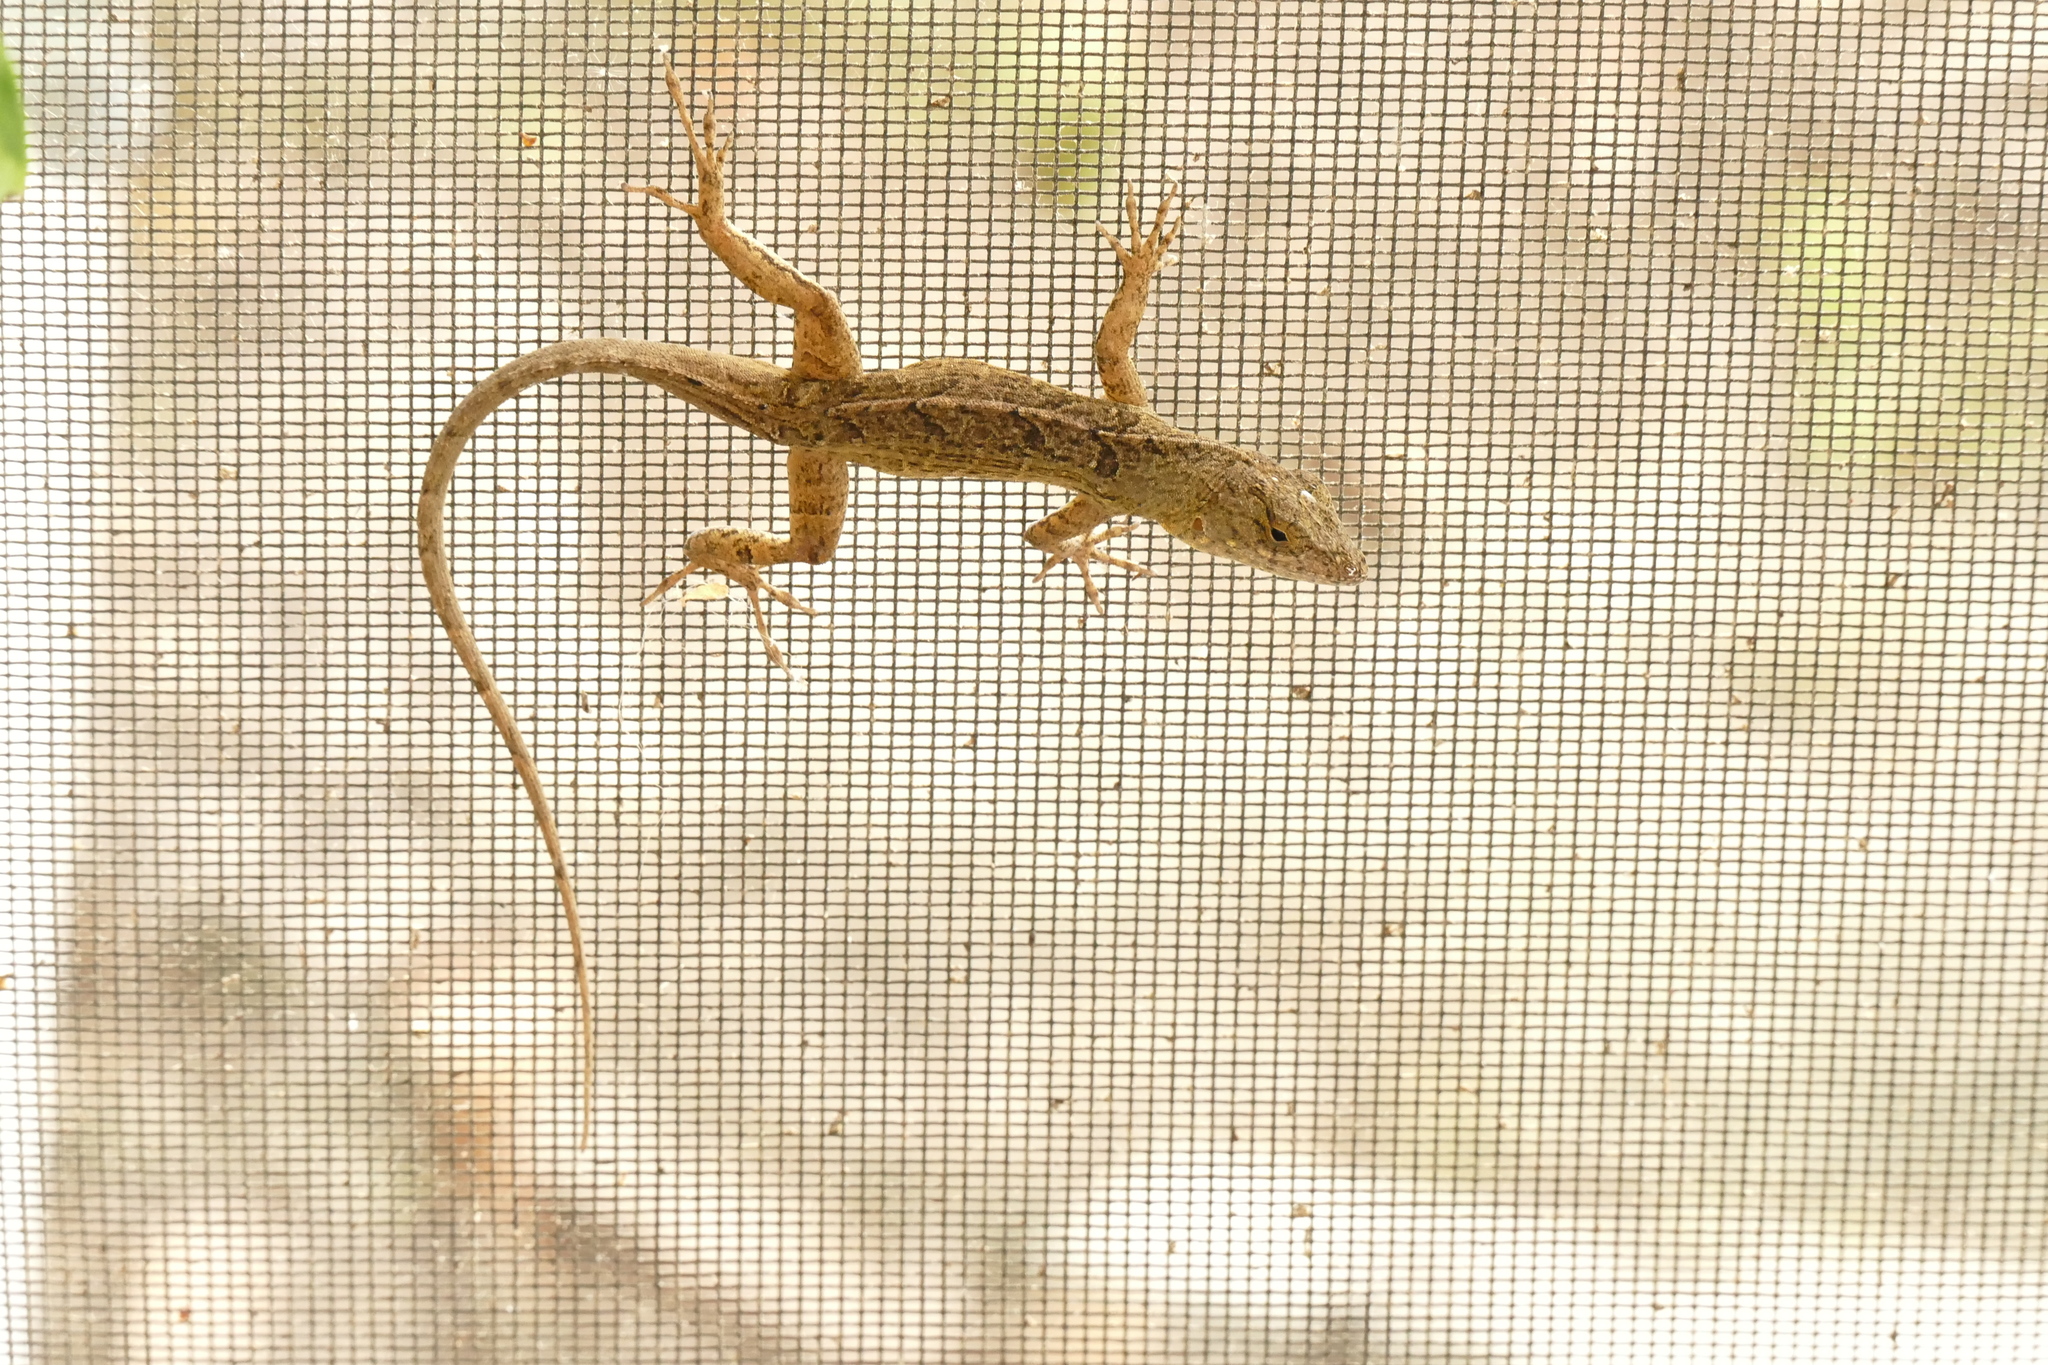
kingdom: Animalia
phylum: Chordata
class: Squamata
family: Dactyloidae
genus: Anolis
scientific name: Anolis sagrei
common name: Brown anole
